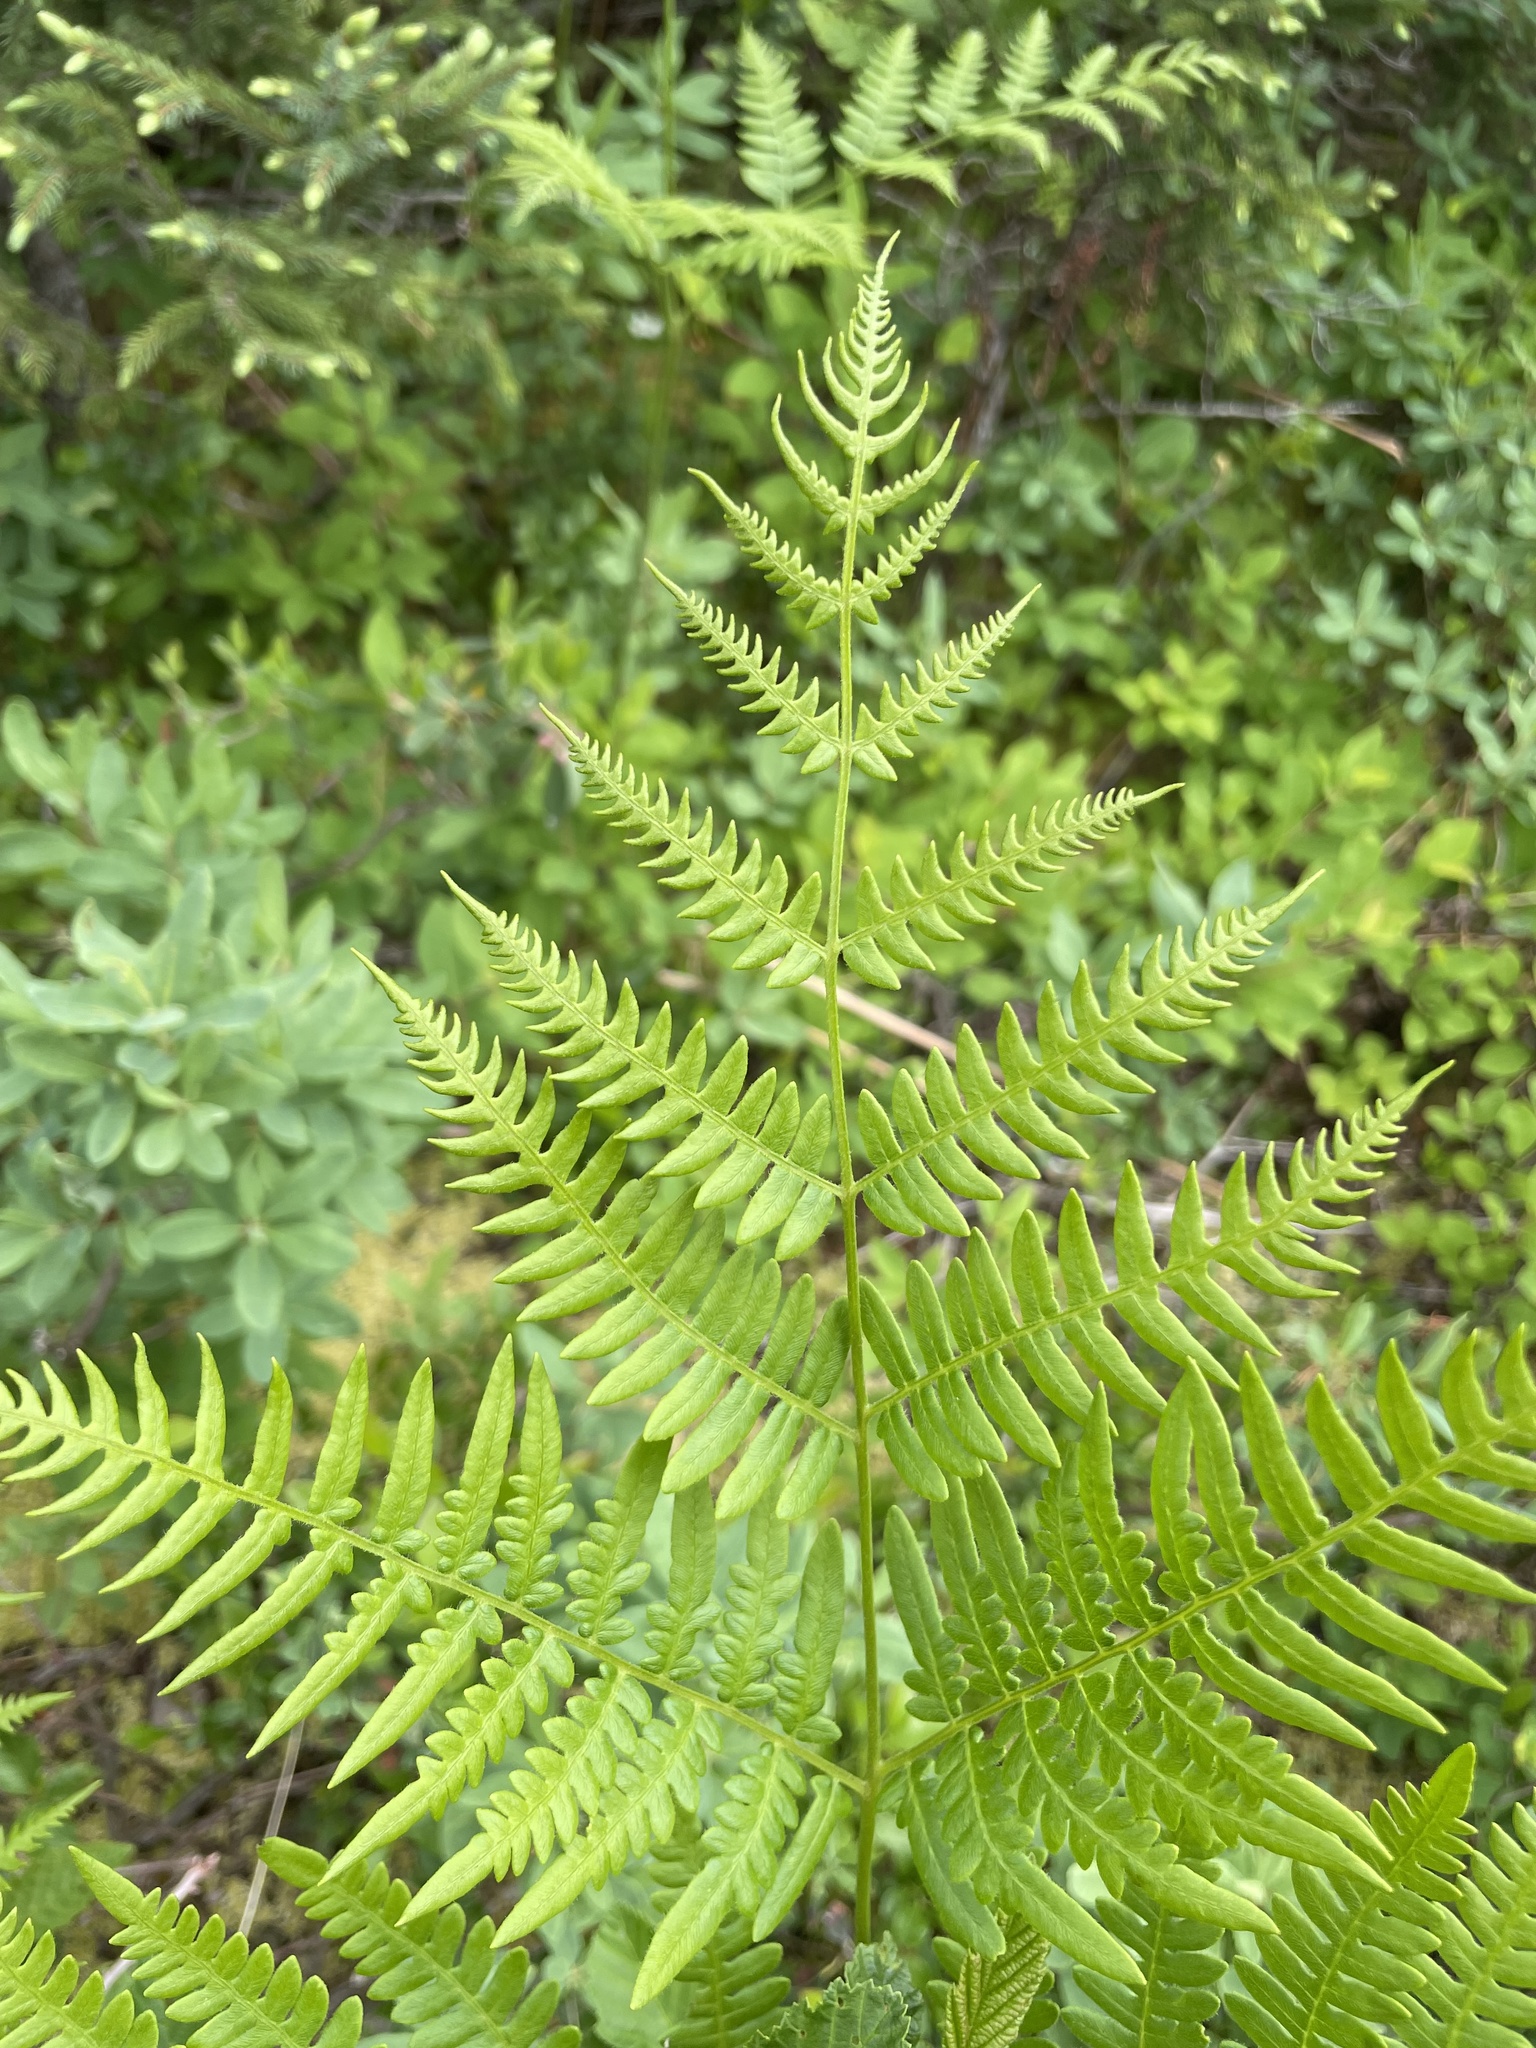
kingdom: Plantae
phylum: Tracheophyta
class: Polypodiopsida
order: Polypodiales
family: Dennstaedtiaceae
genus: Pteridium
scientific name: Pteridium aquilinum
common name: Bracken
